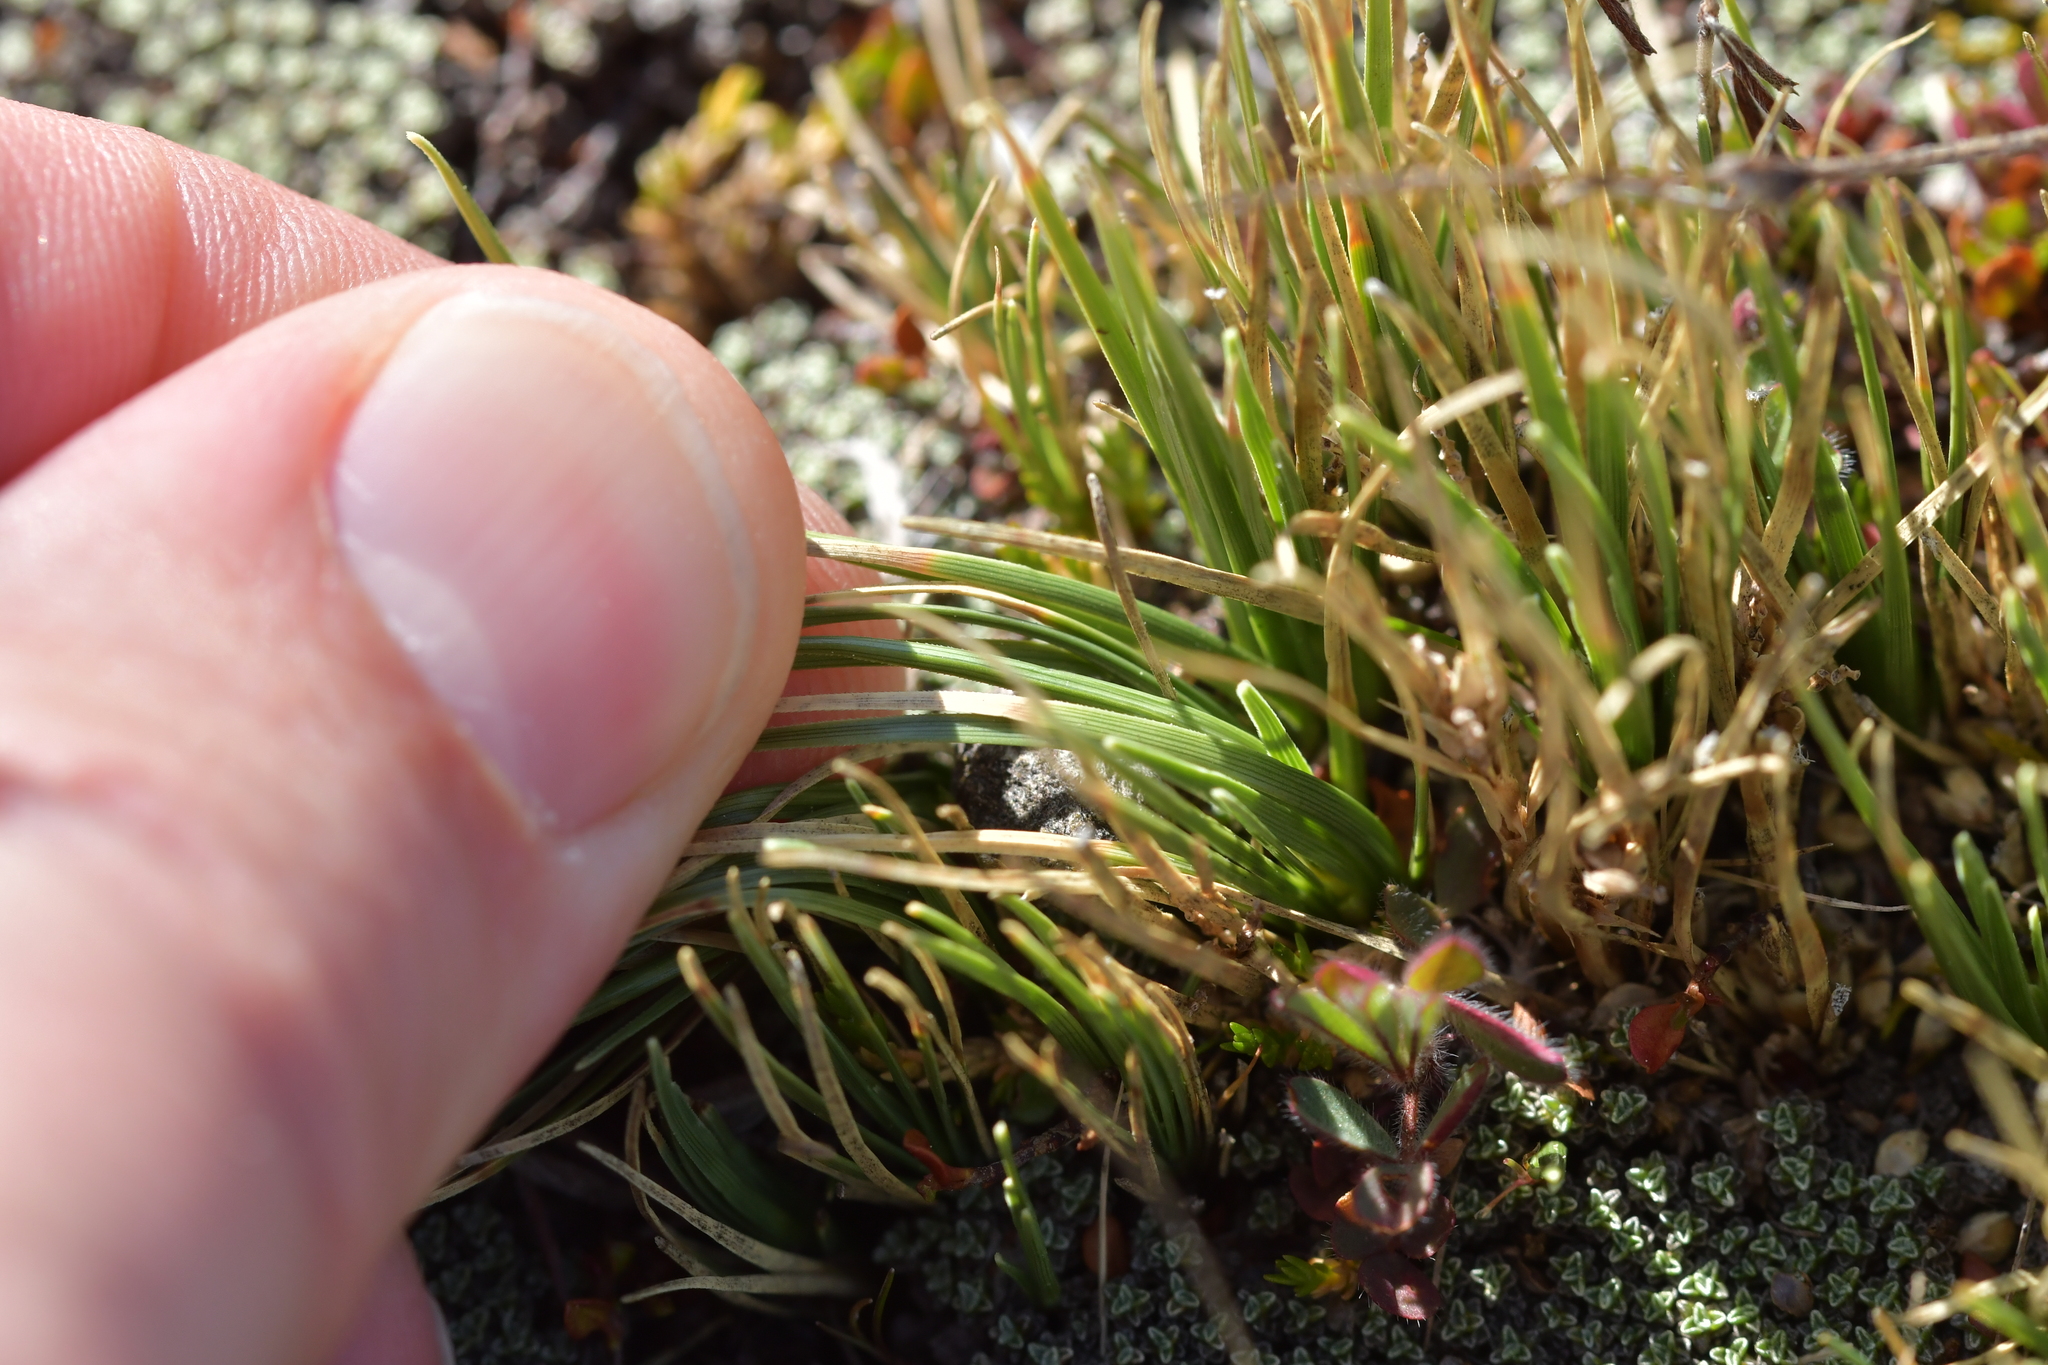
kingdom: Plantae
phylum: Tracheophyta
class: Liliopsida
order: Poales
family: Cyperaceae
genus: Carex
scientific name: Carex decurtata
